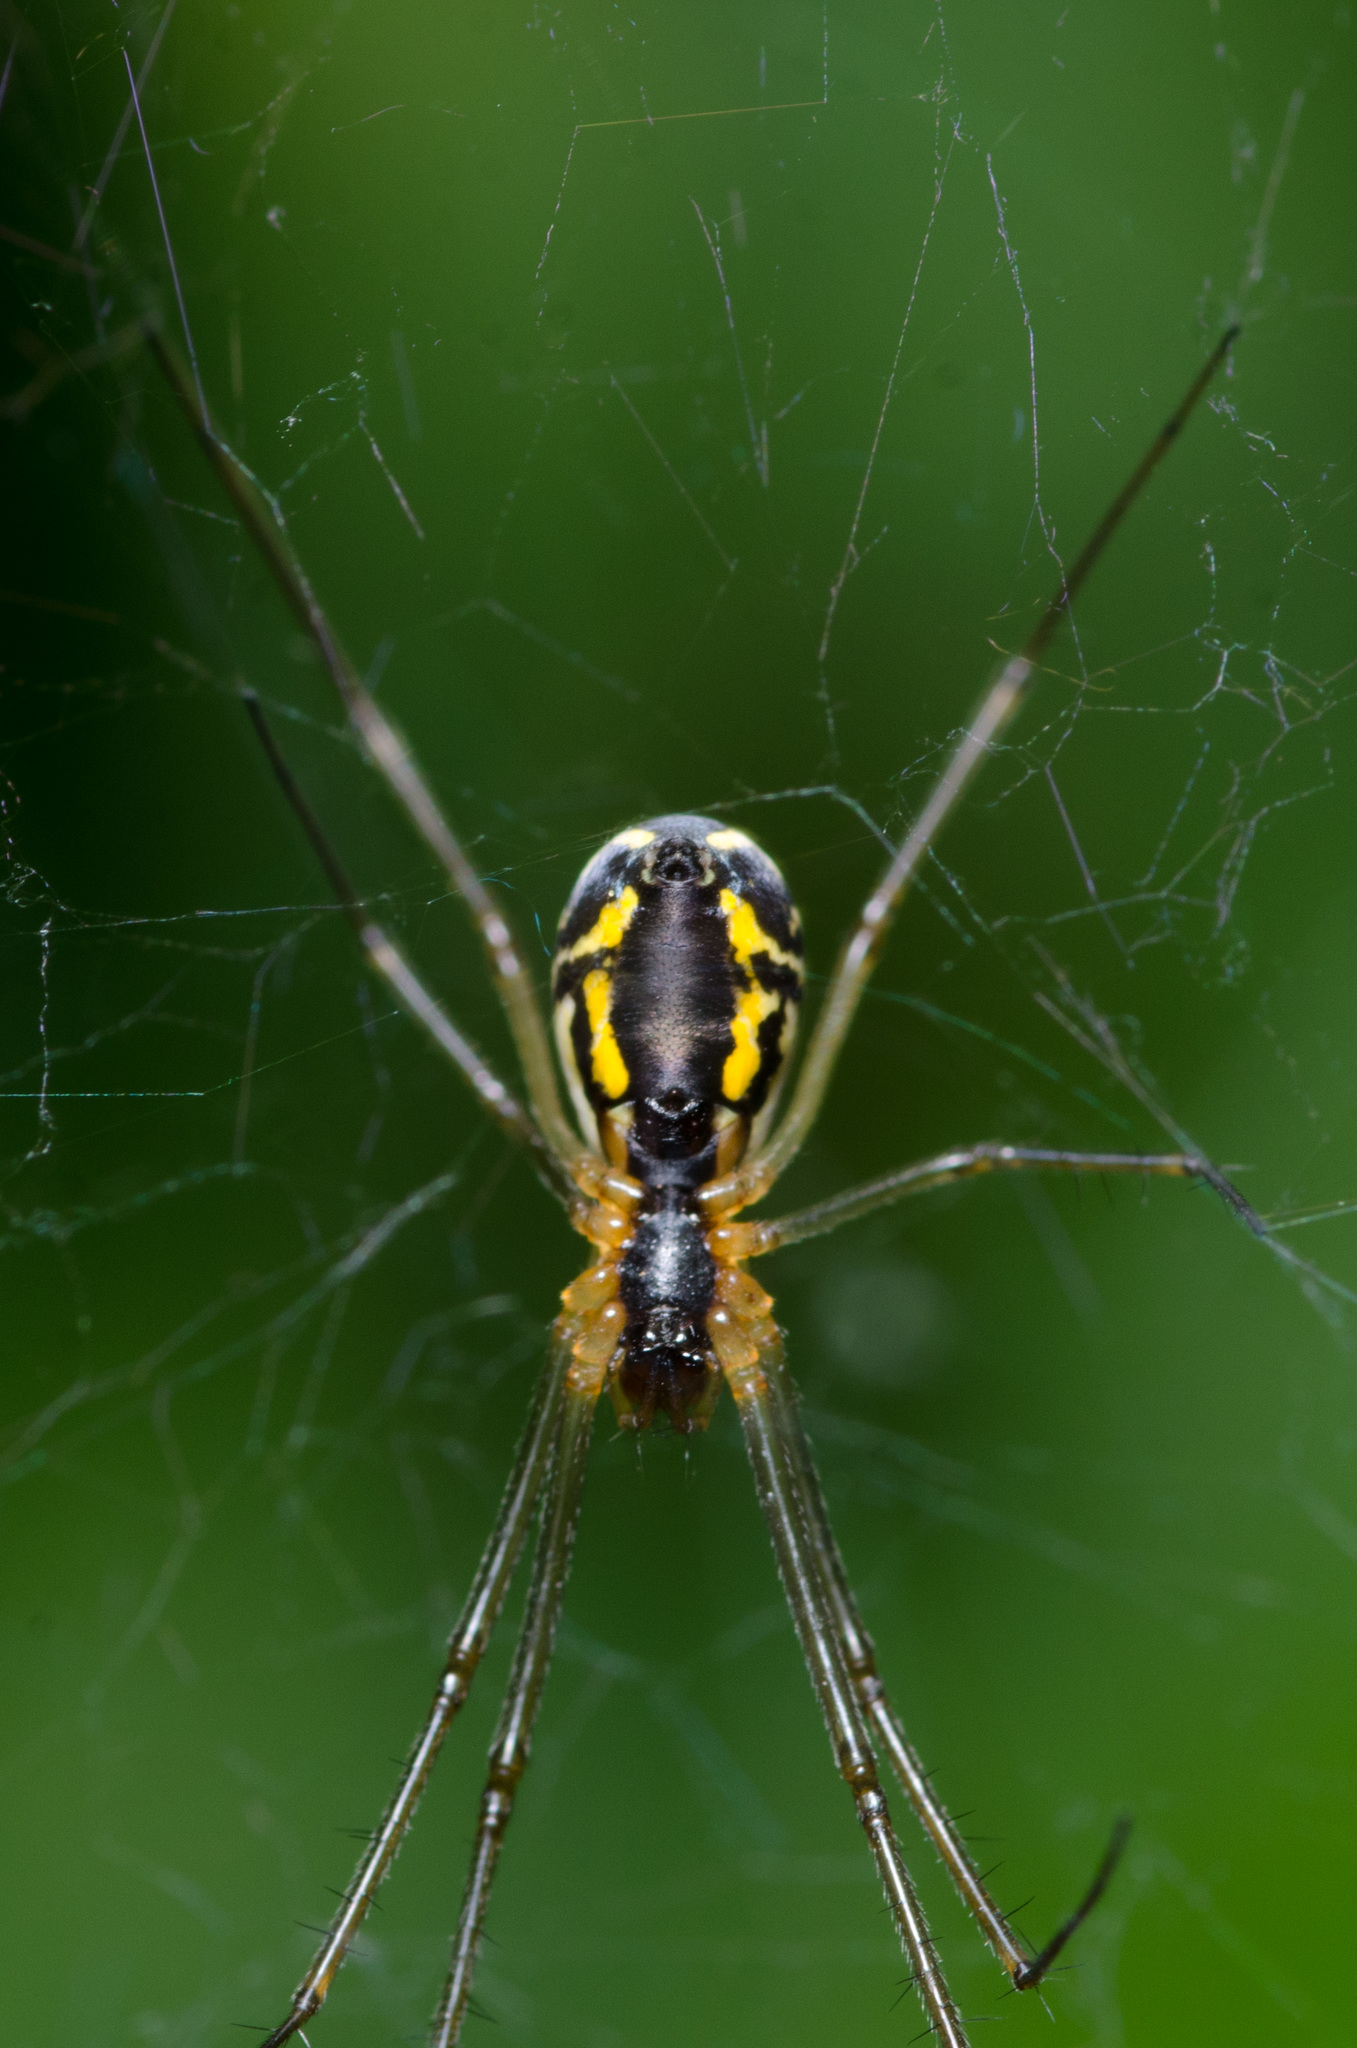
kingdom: Animalia
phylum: Arthropoda
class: Arachnida
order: Araneae
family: Linyphiidae
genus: Neriene
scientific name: Neriene radiata
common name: Filmy dome spider
